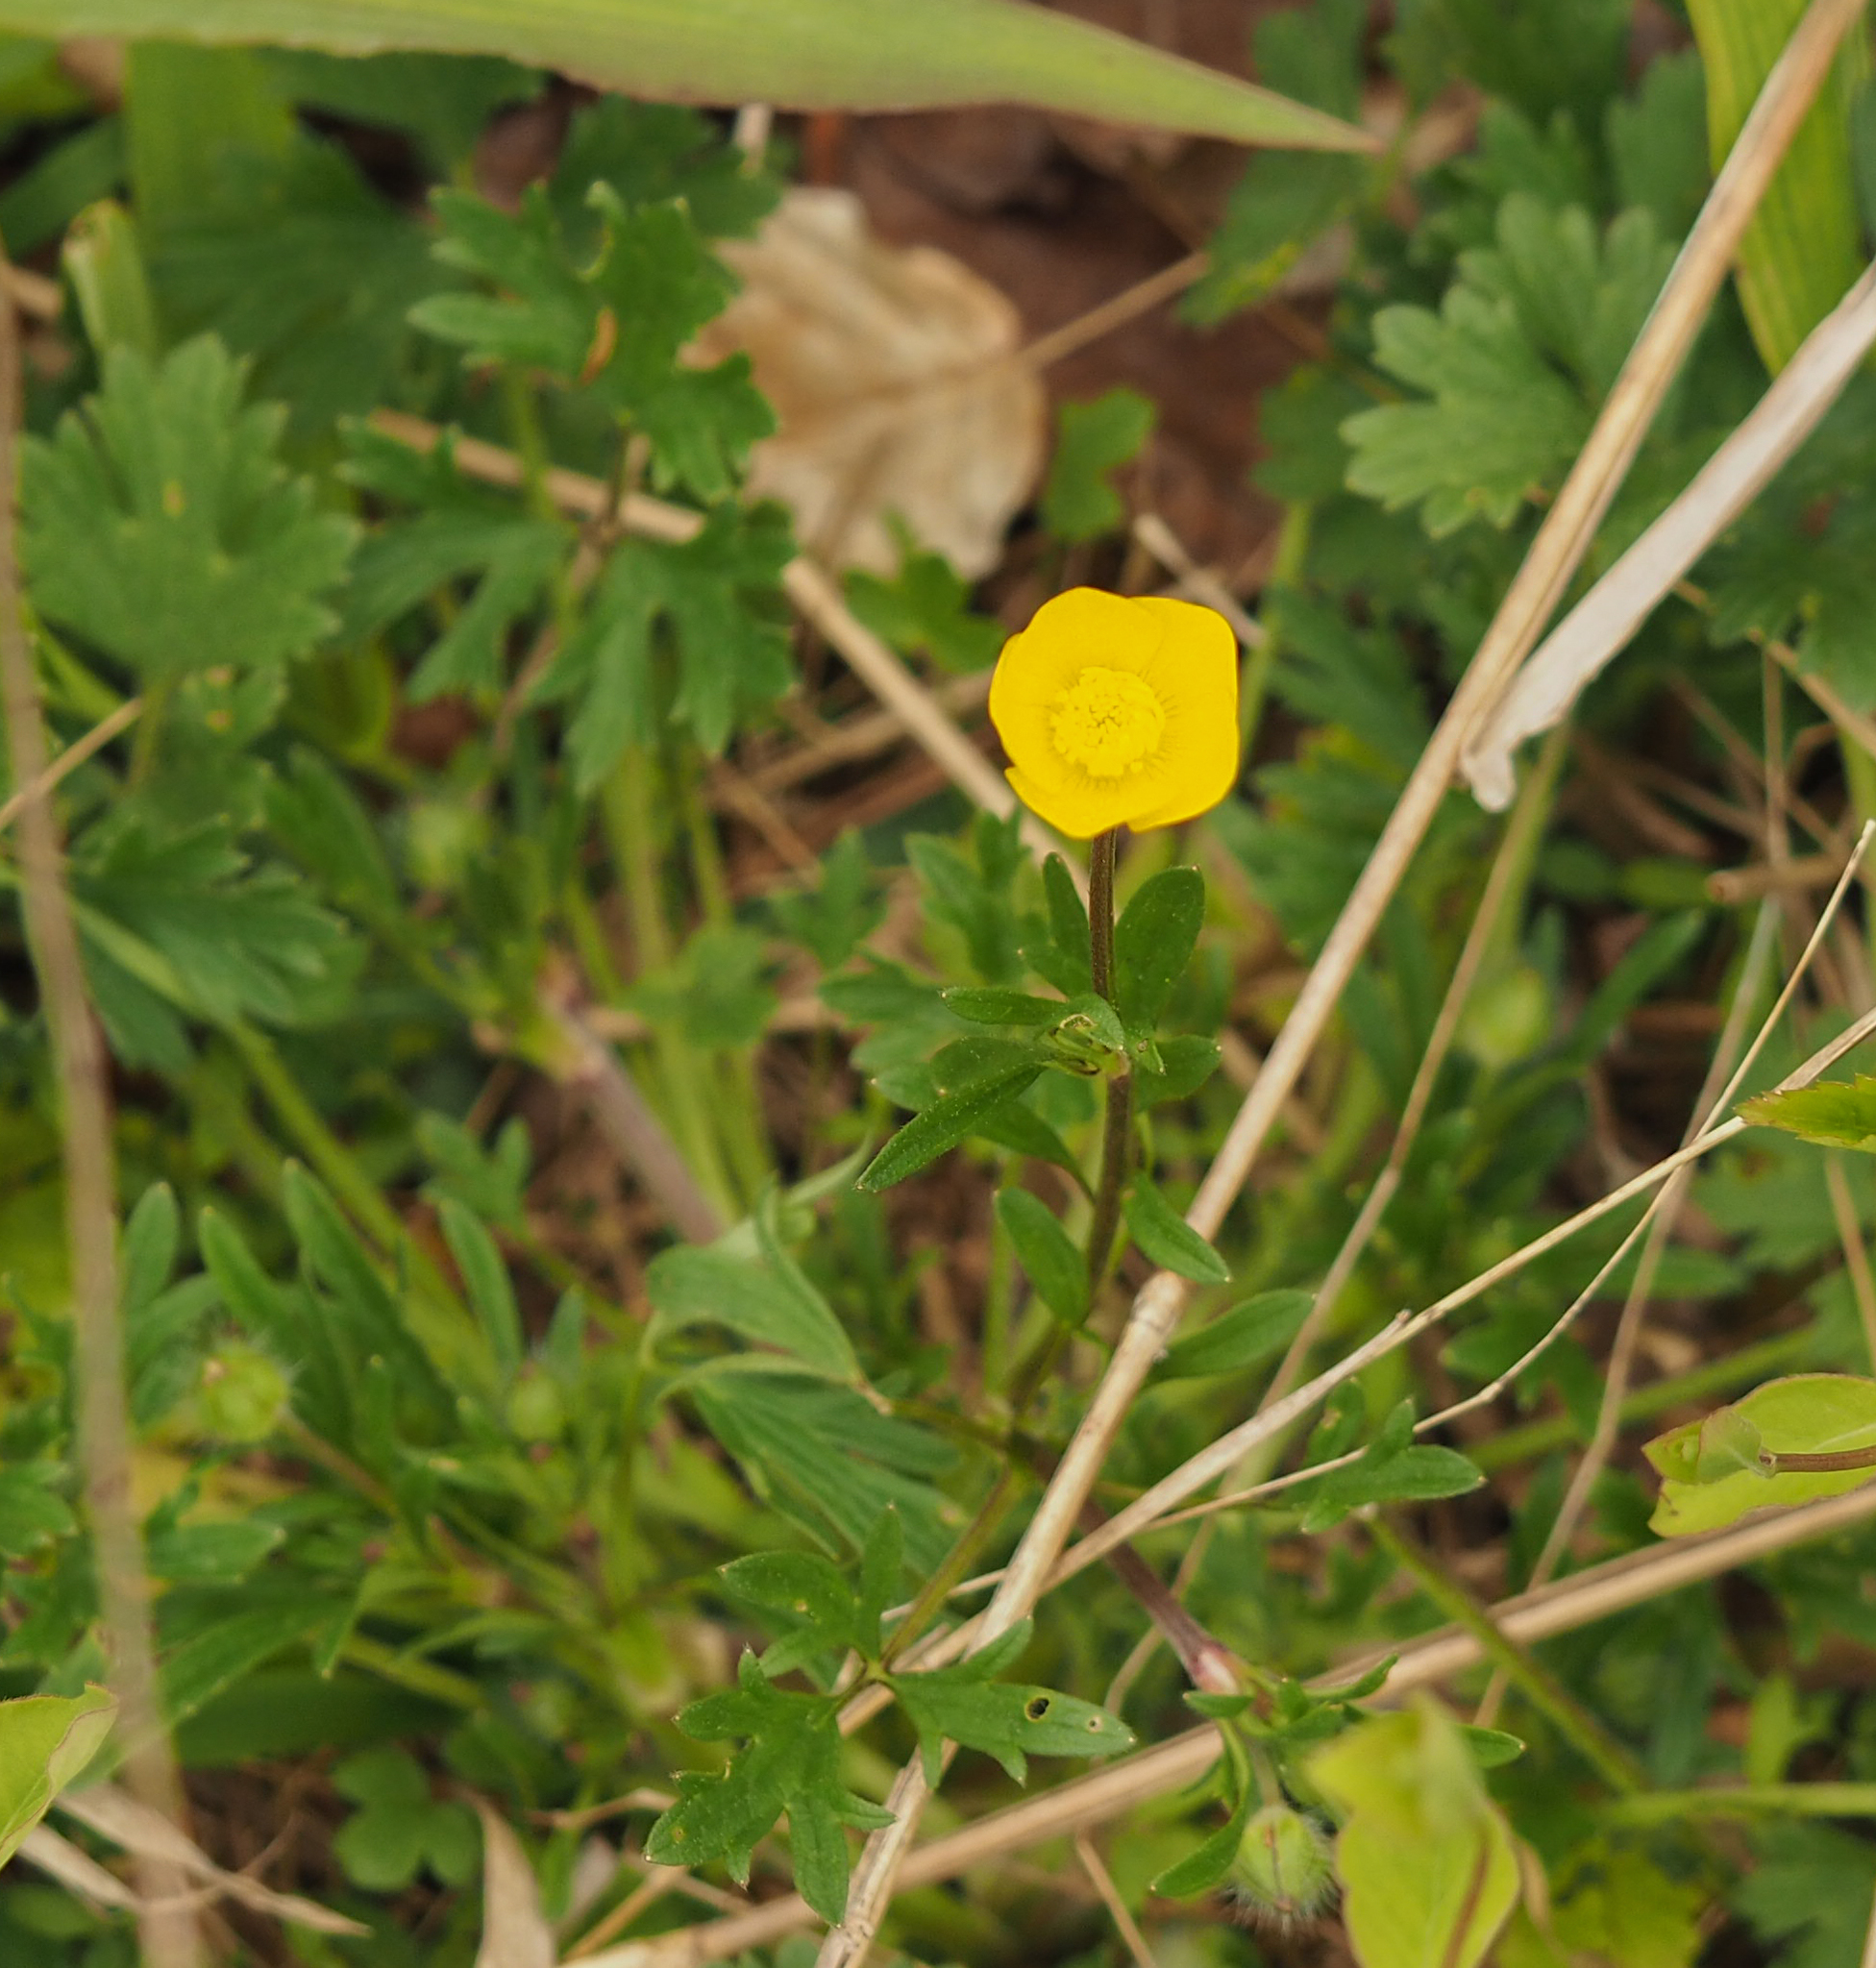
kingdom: Plantae
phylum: Tracheophyta
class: Magnoliopsida
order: Ranunculales
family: Ranunculaceae
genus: Ranunculus
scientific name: Ranunculus bulbosus
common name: Bulbous buttercup
